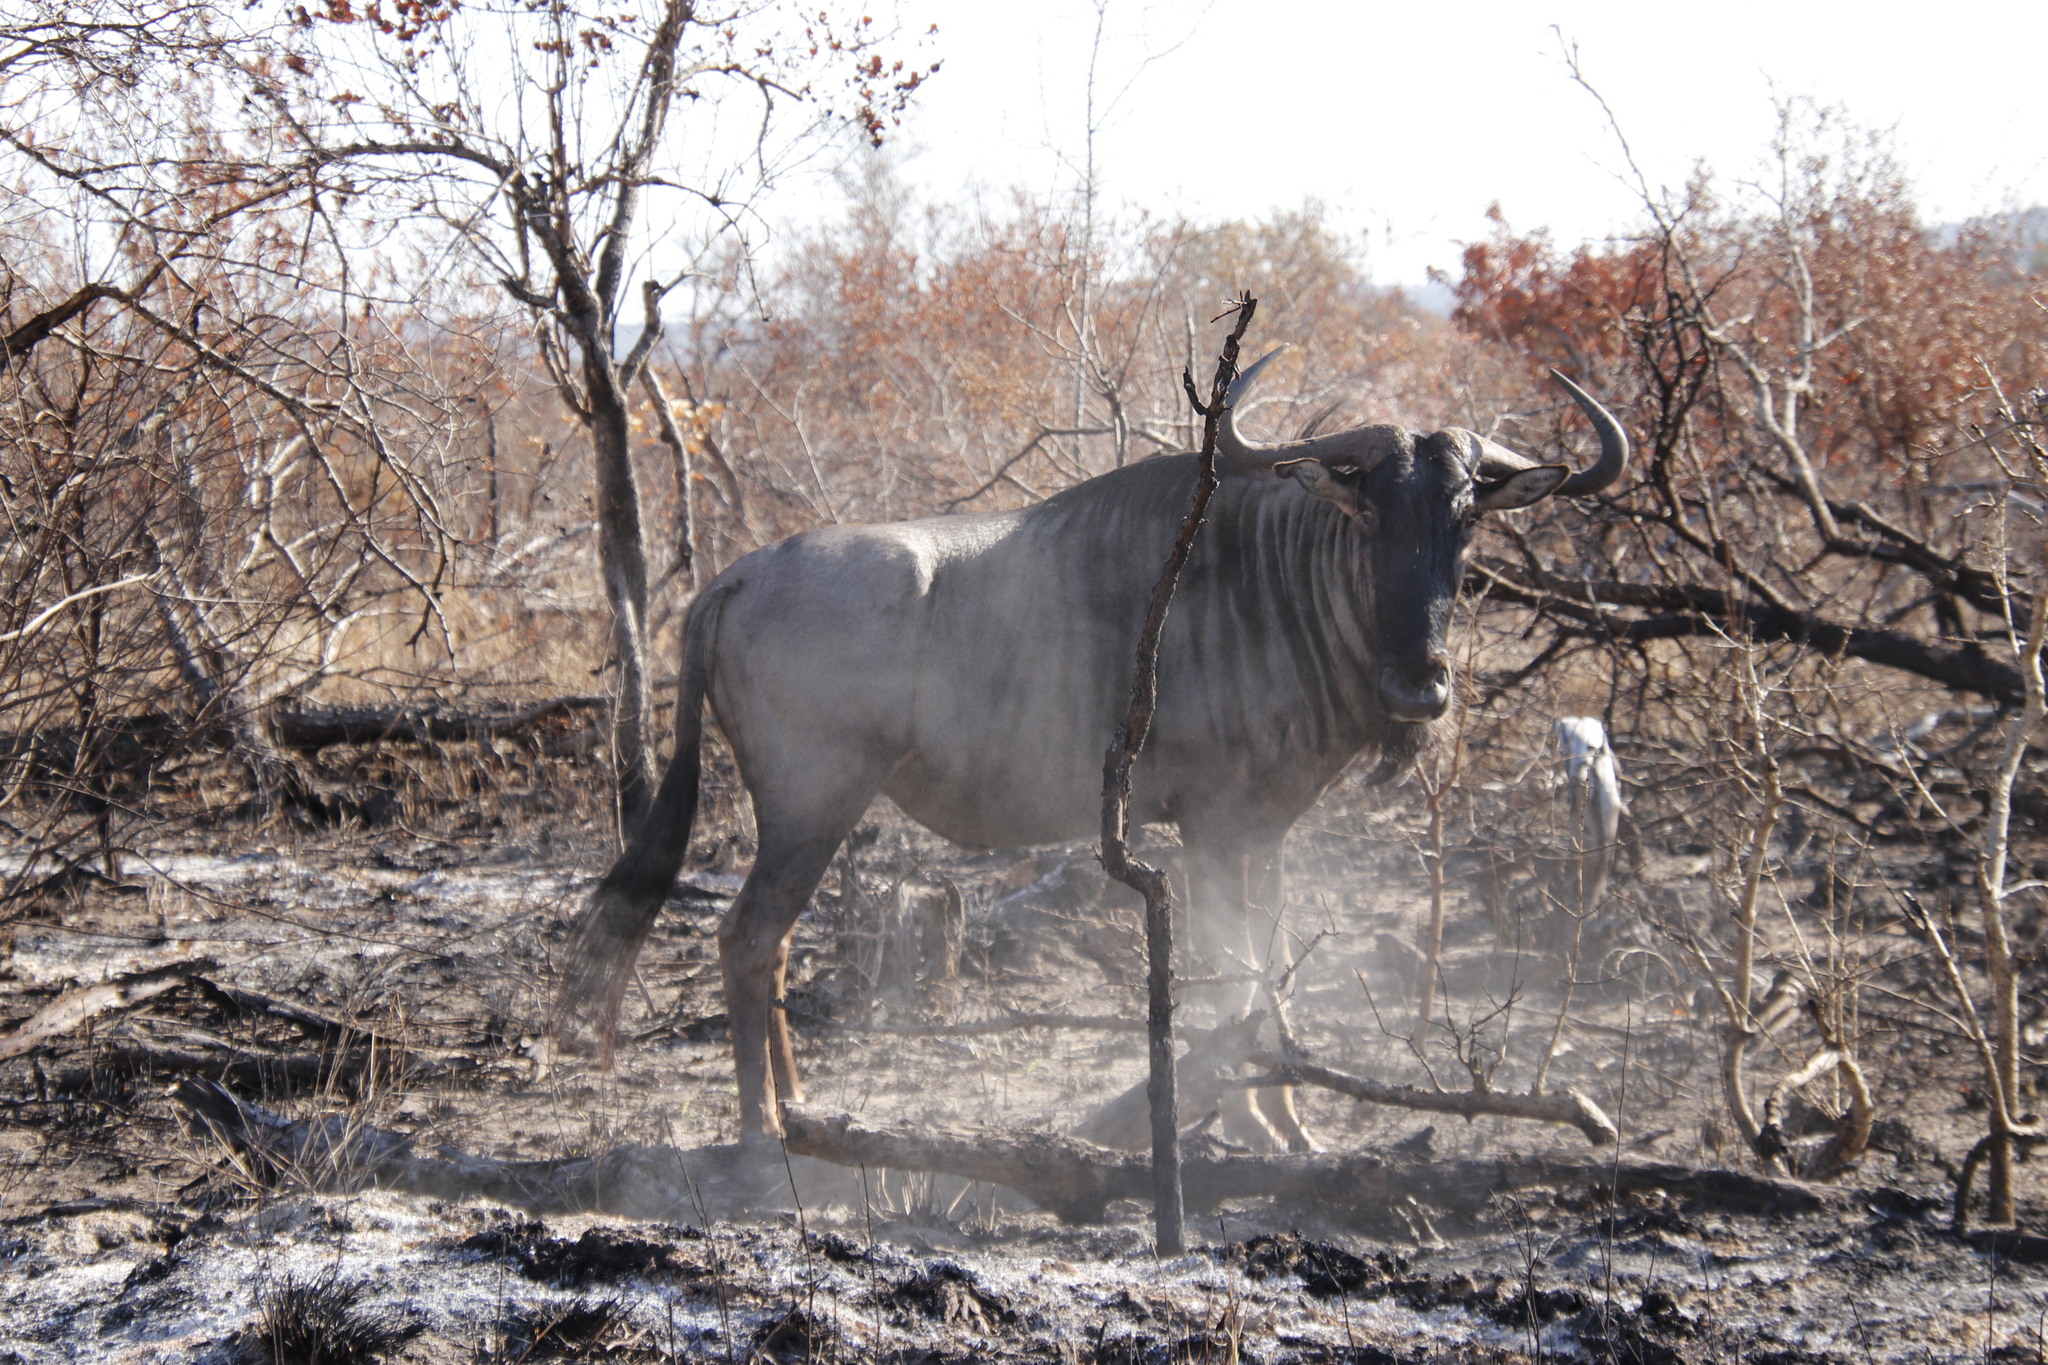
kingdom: Animalia
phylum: Chordata
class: Mammalia
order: Artiodactyla
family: Bovidae
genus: Connochaetes
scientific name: Connochaetes taurinus
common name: Blue wildebeest
